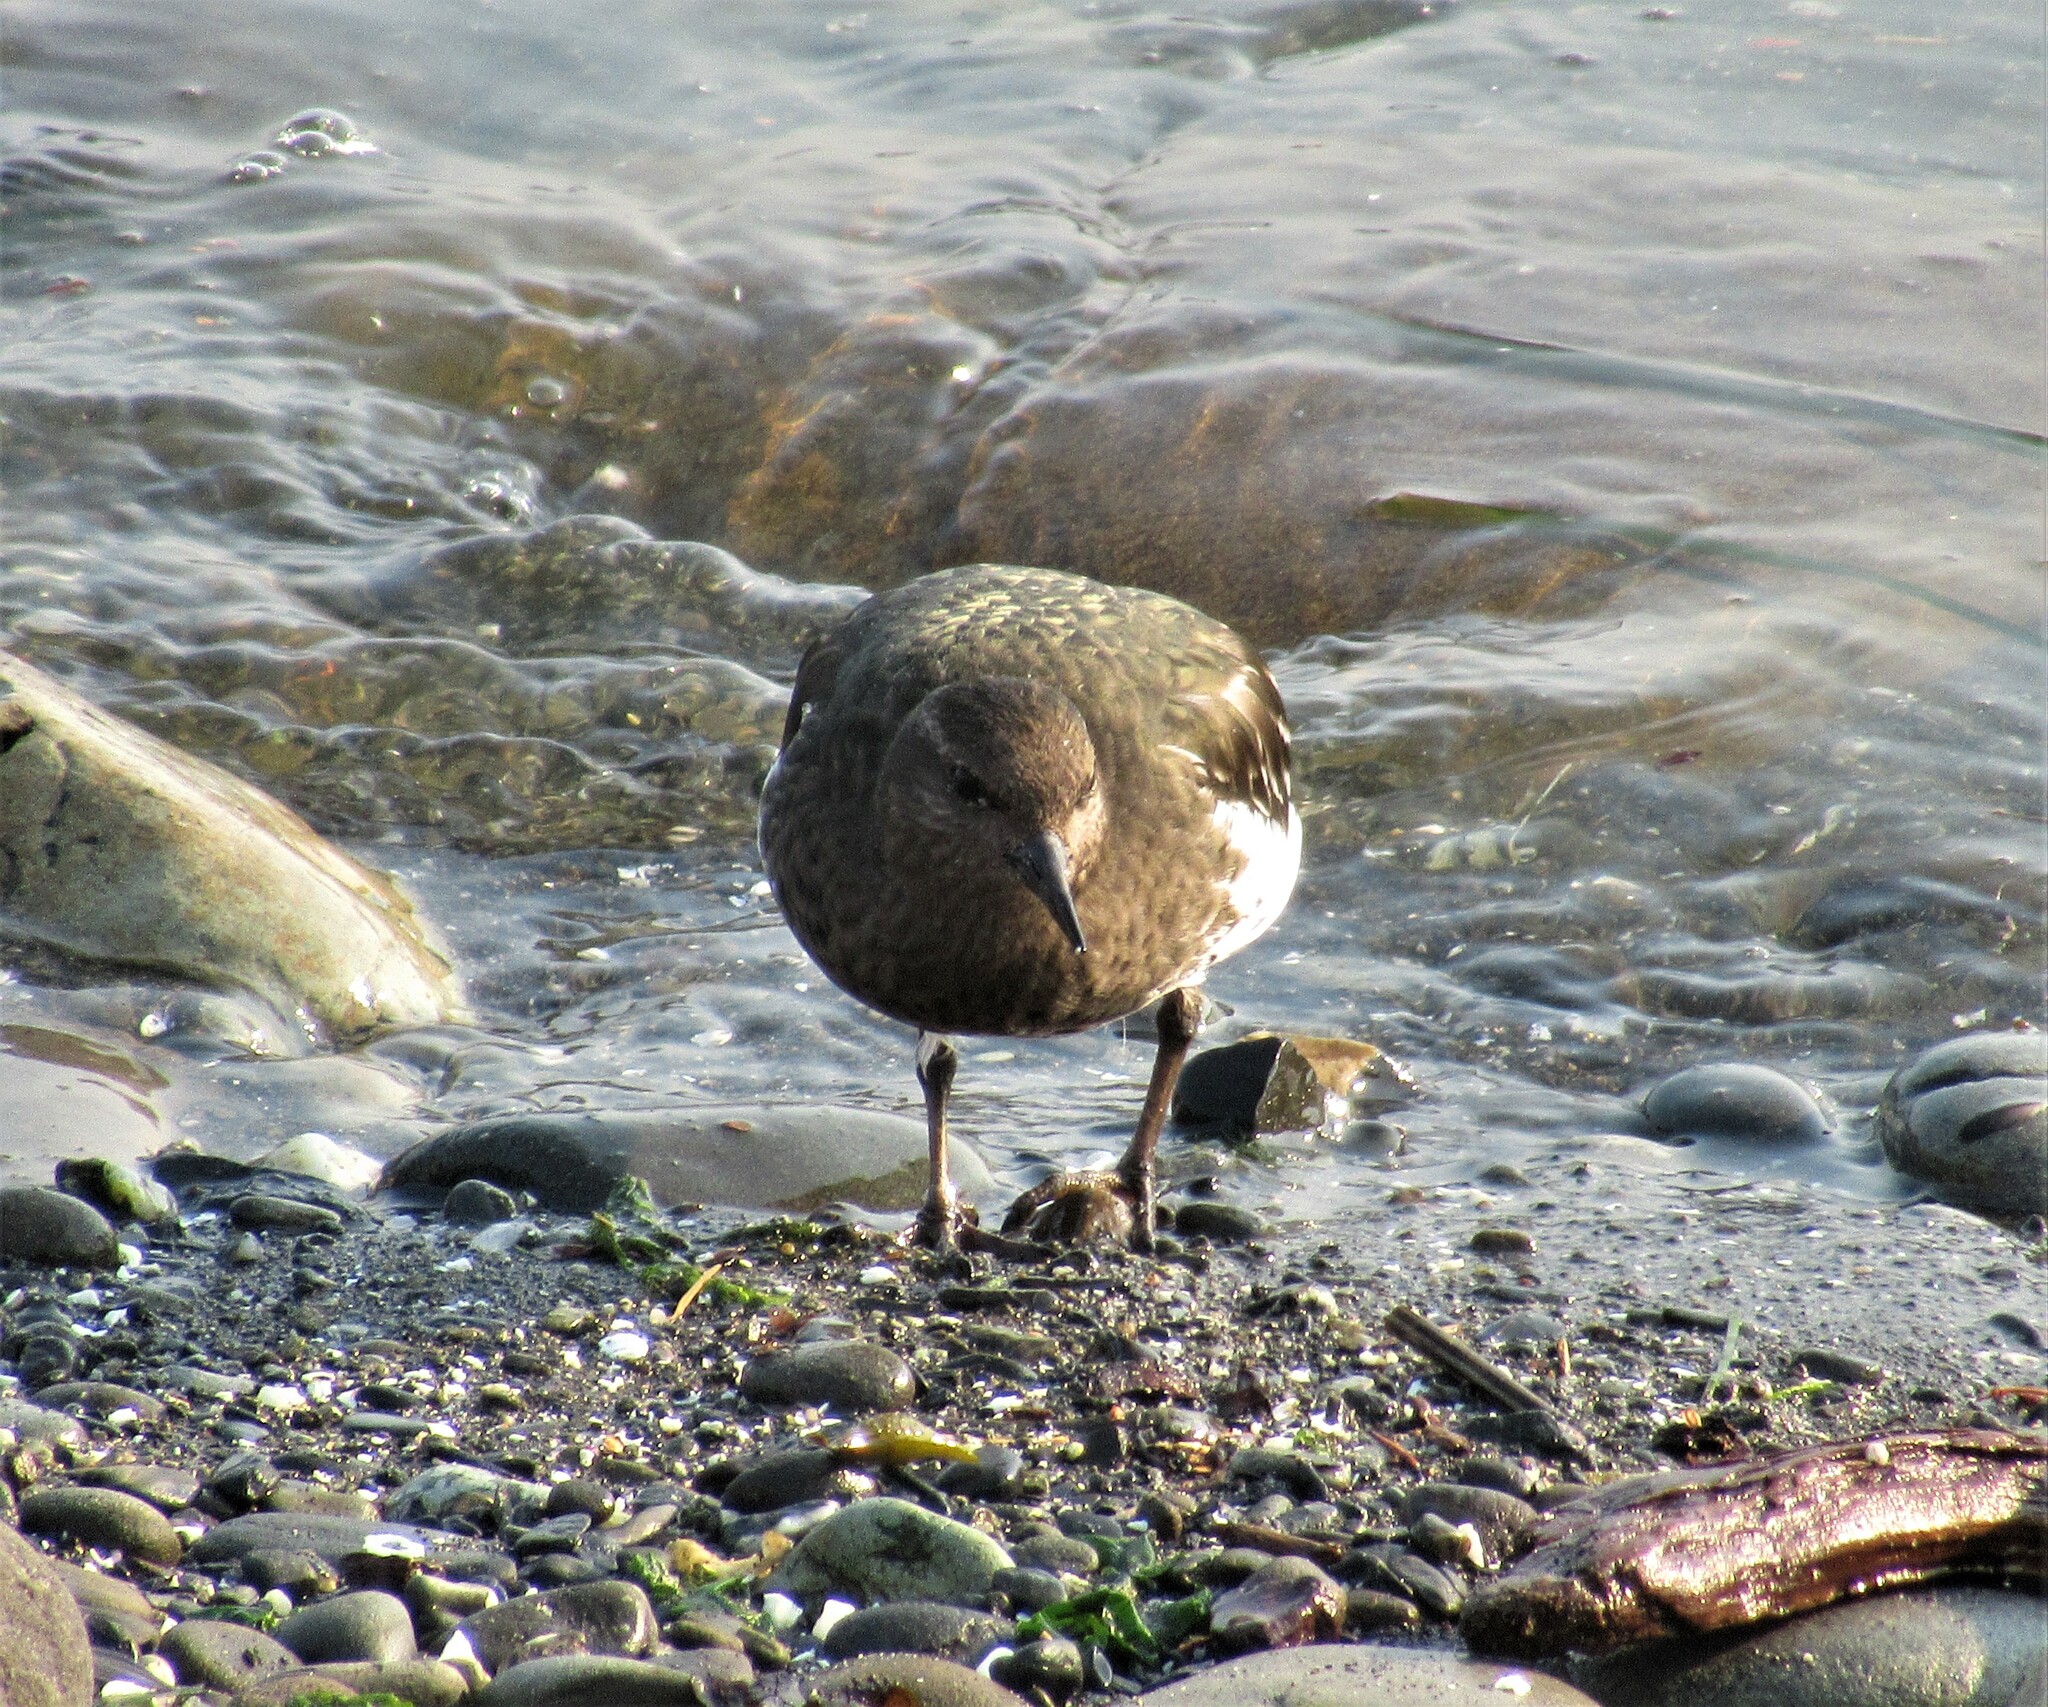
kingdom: Animalia
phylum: Chordata
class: Aves
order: Charadriiformes
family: Scolopacidae
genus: Arenaria
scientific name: Arenaria melanocephala
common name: Black turnstone
